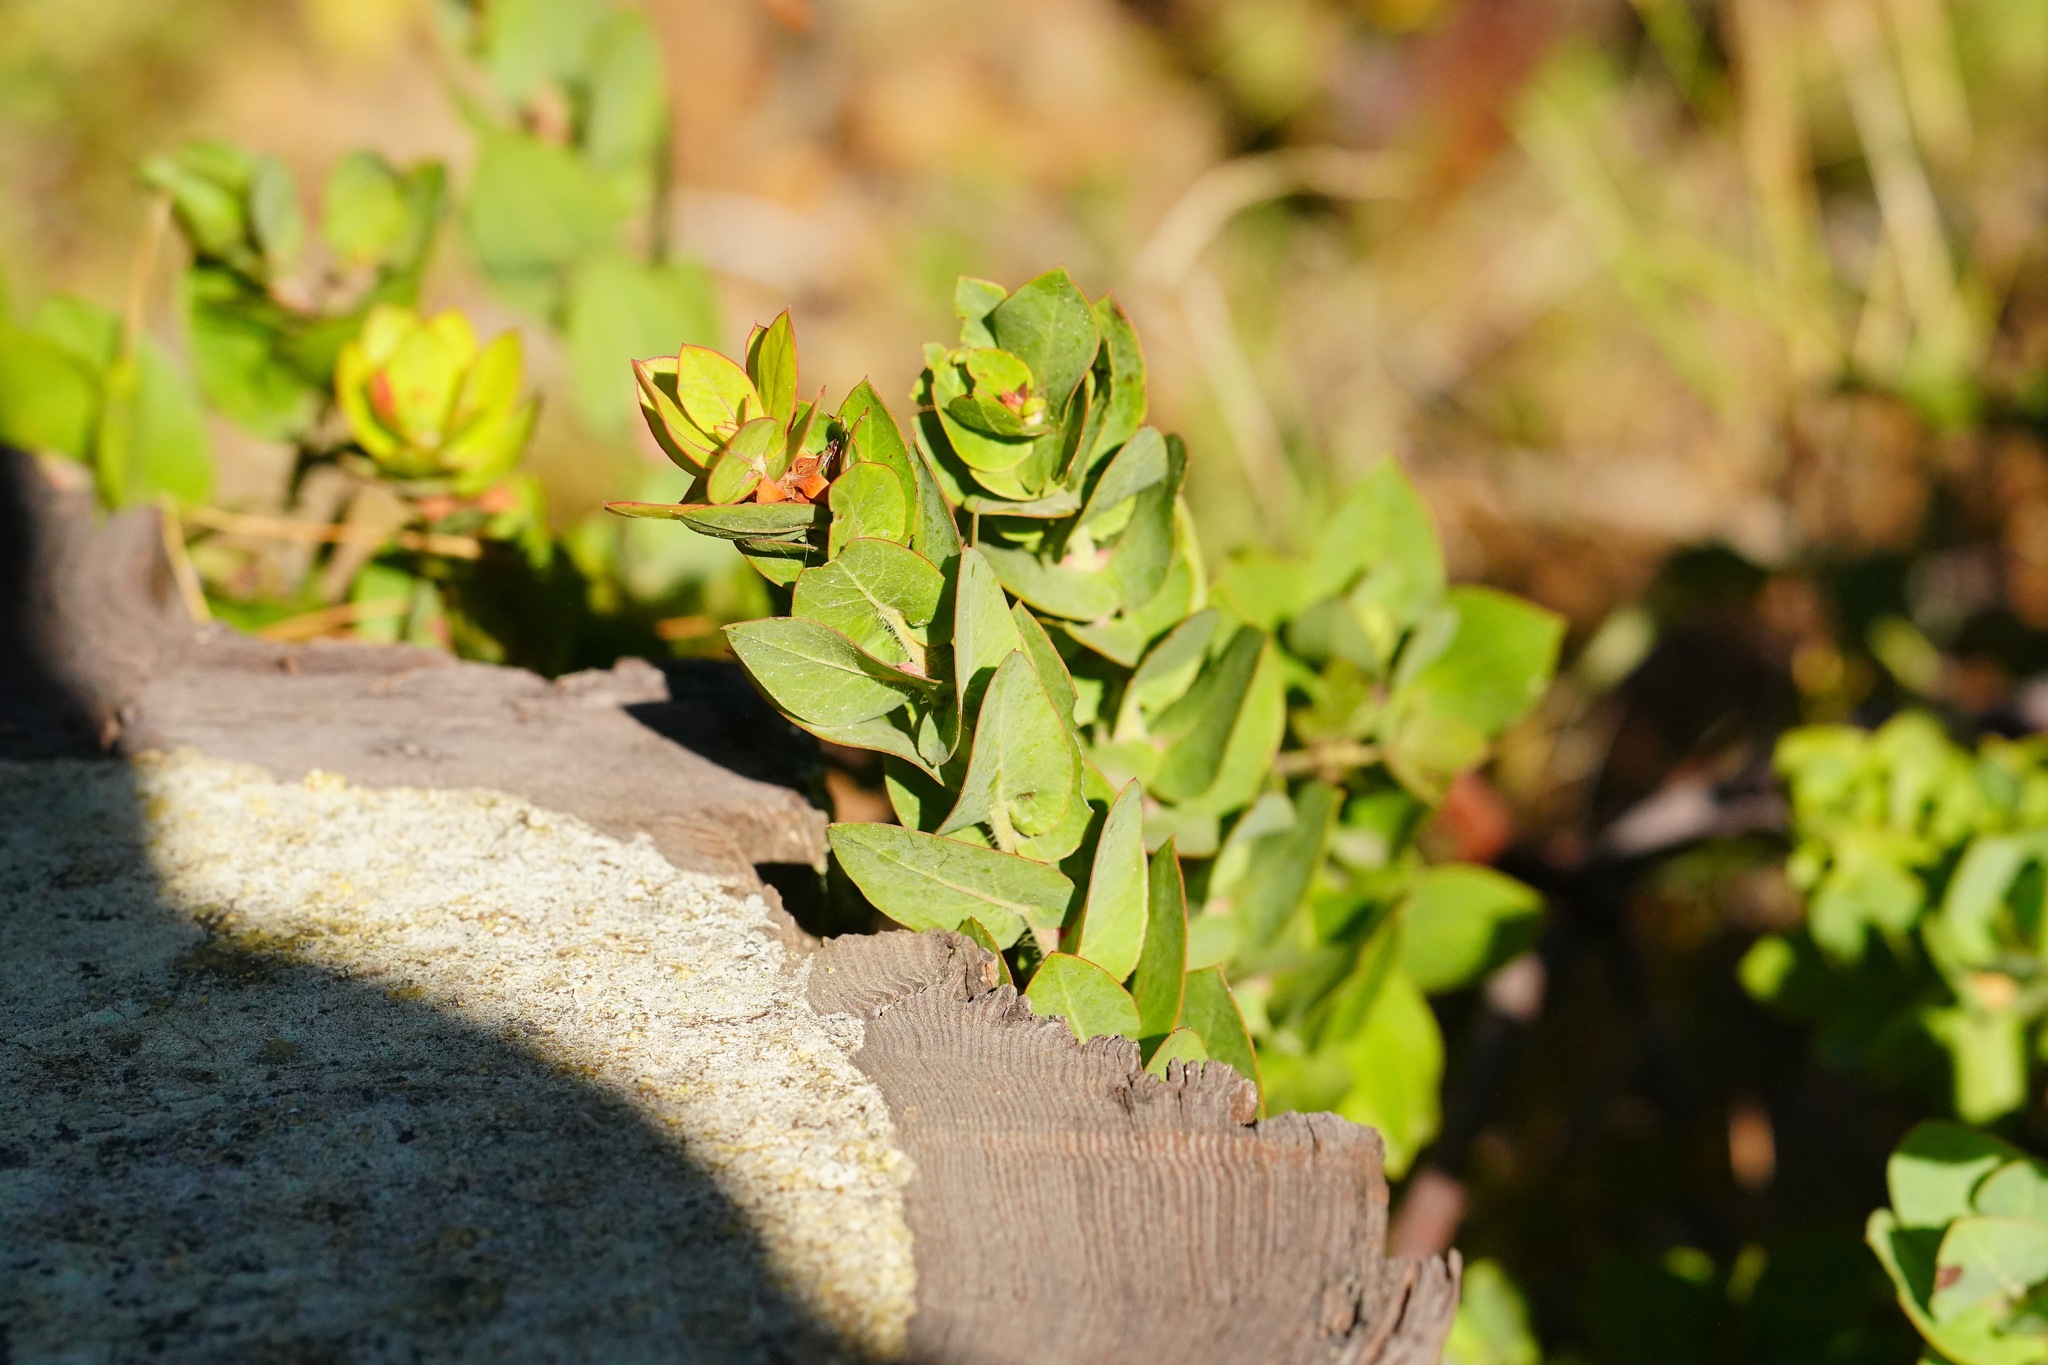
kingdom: Plantae
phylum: Tracheophyta
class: Magnoliopsida
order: Ericales
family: Ericaceae
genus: Arctostaphylos
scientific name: Arctostaphylos pallida
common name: Pallid manzanita
